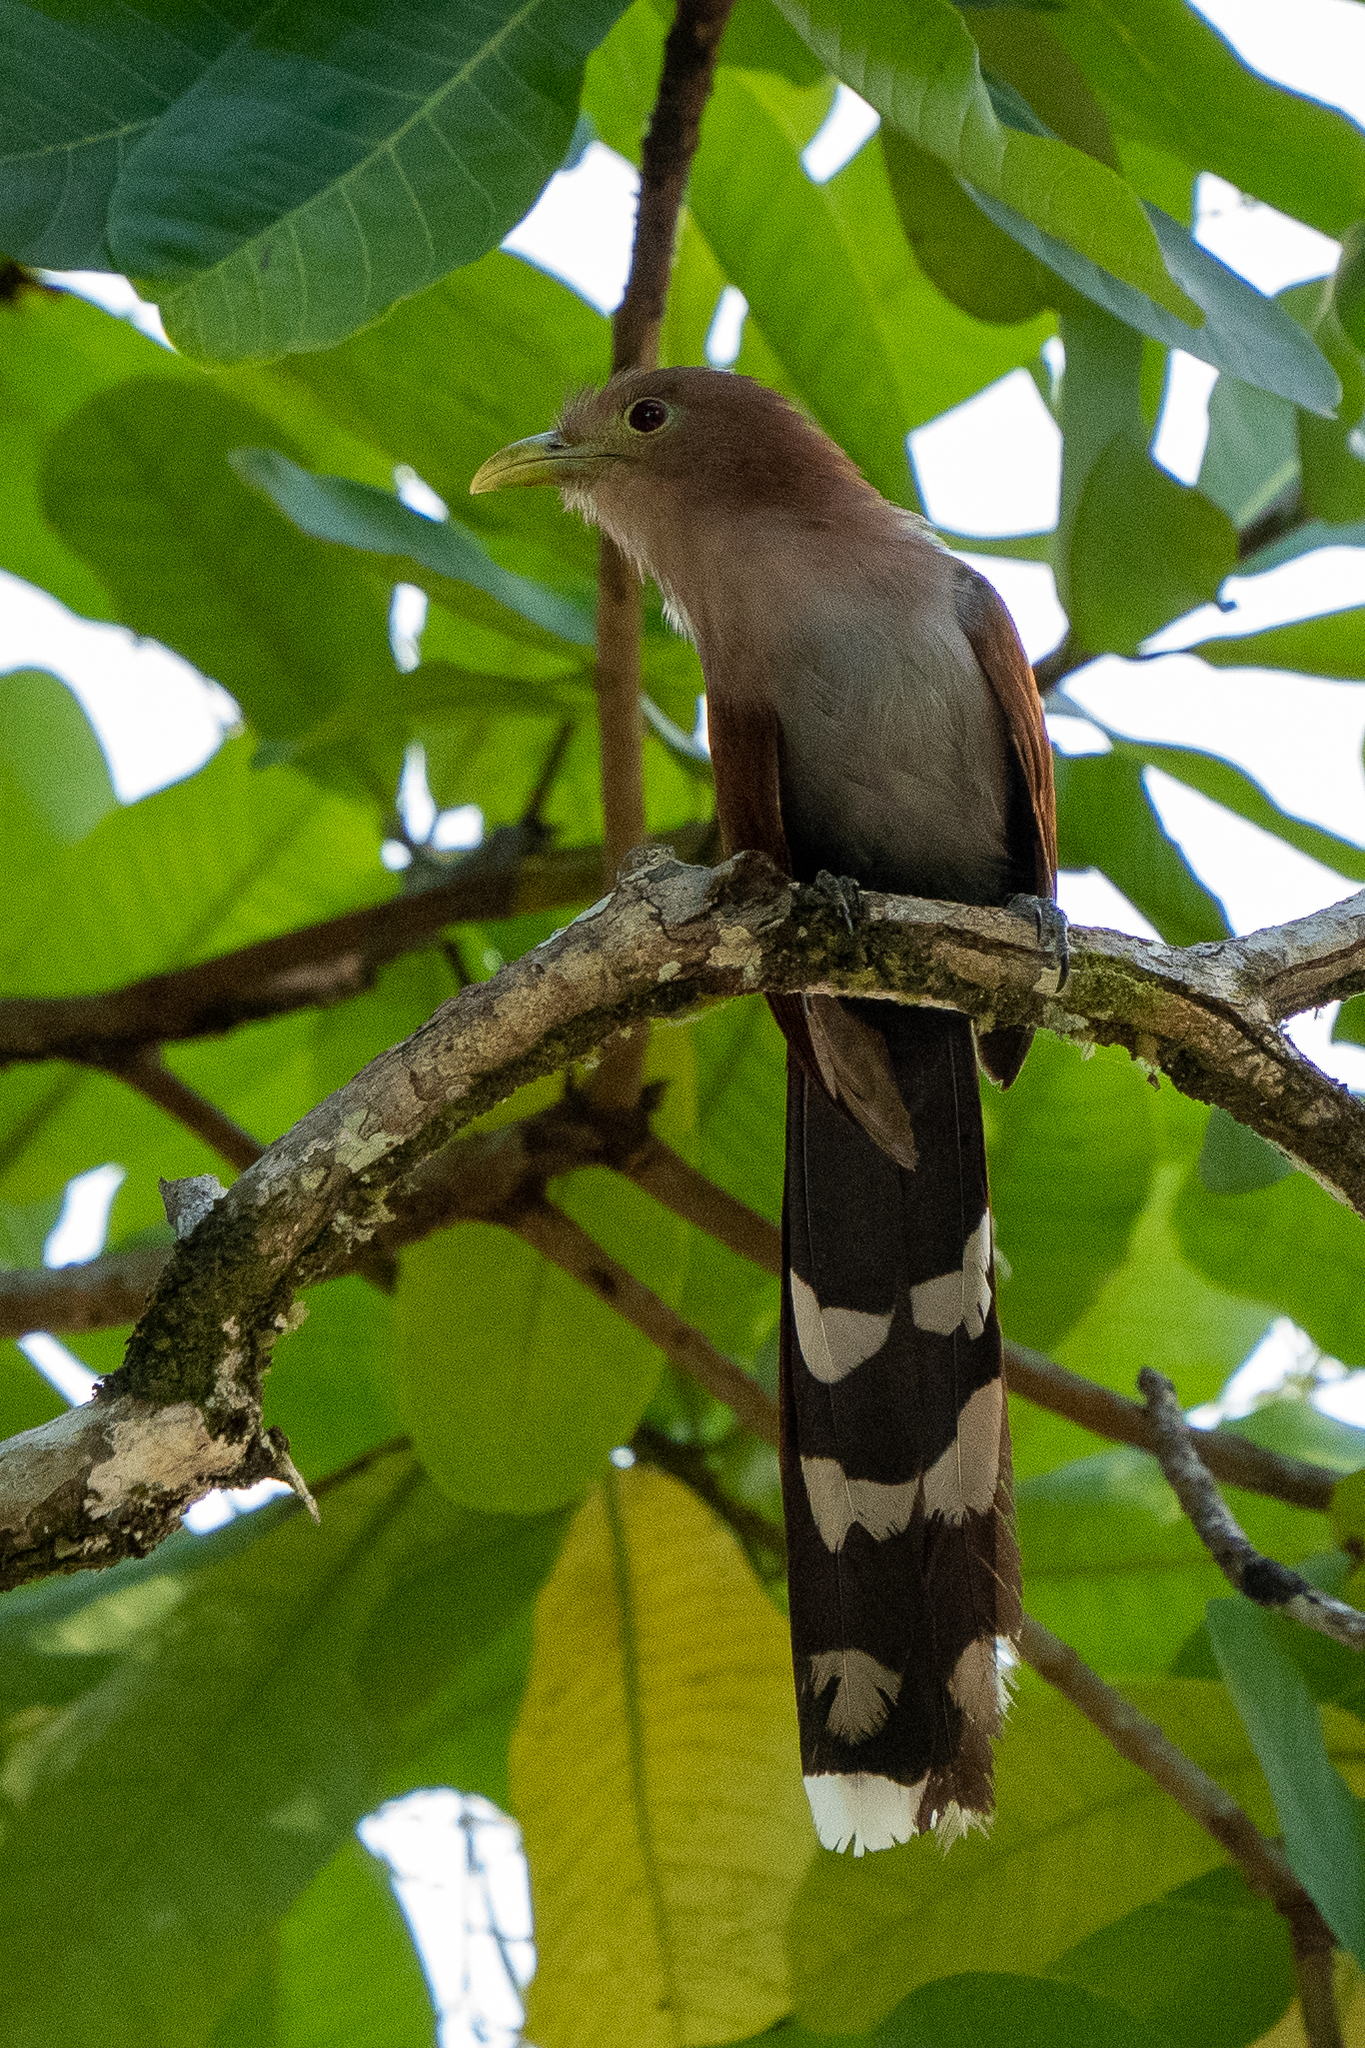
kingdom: Animalia
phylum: Chordata
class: Aves
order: Cuculiformes
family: Cuculidae
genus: Piaya
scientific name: Piaya cayana
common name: Squirrel cuckoo
